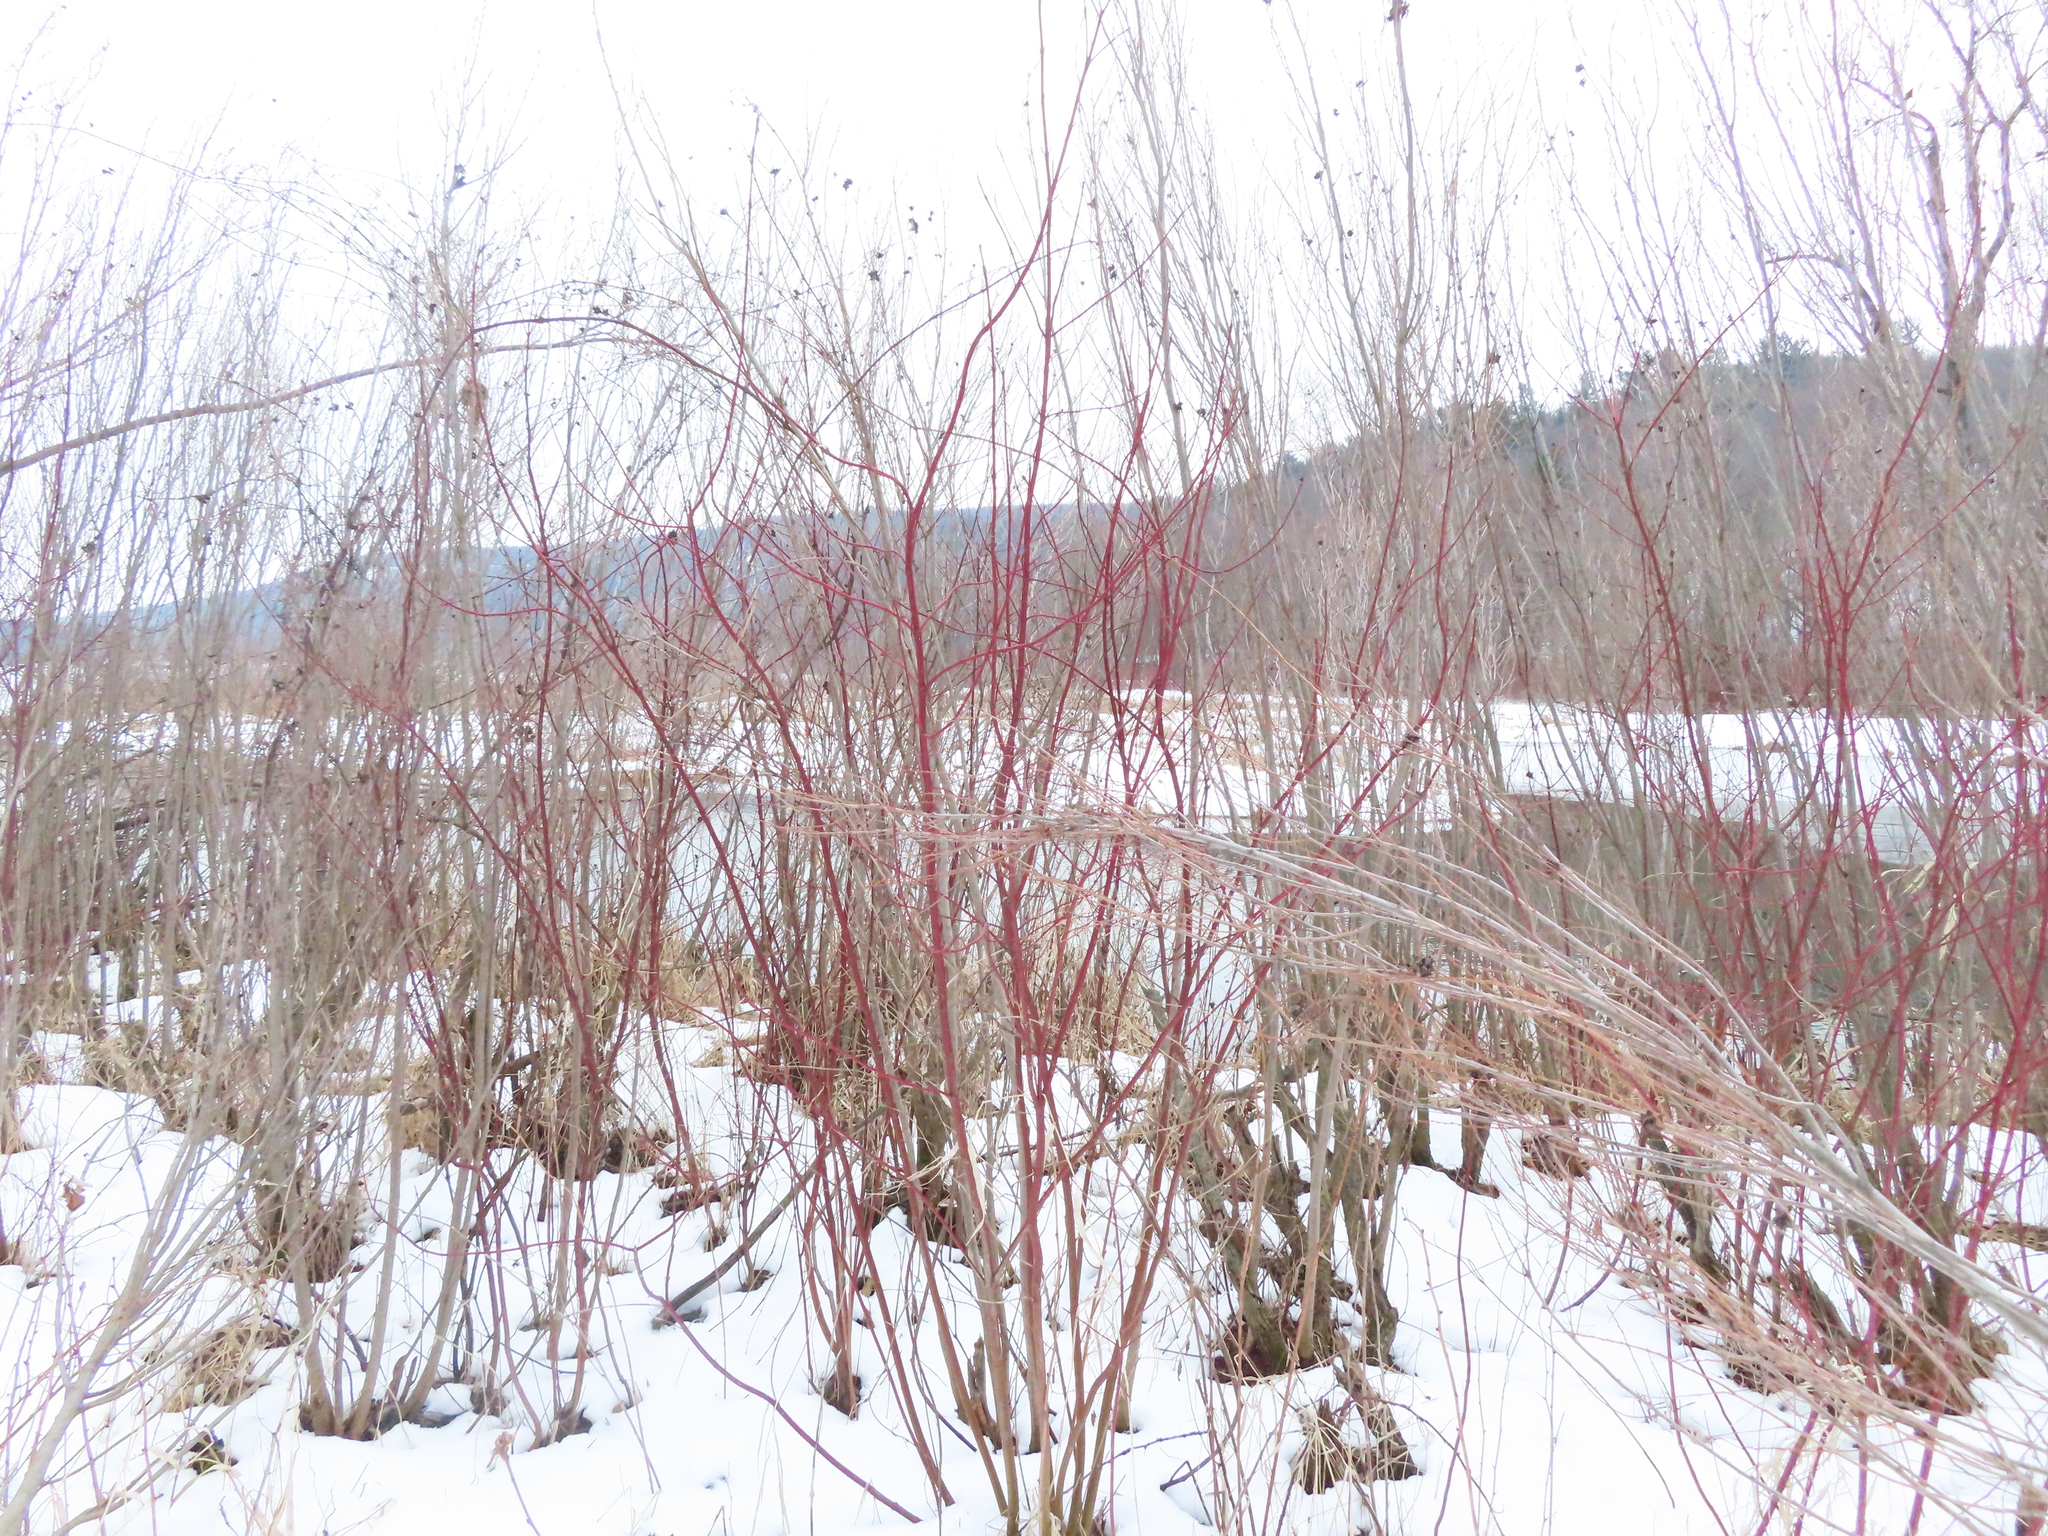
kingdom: Plantae
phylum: Tracheophyta
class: Magnoliopsida
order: Cornales
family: Cornaceae
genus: Cornus
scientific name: Cornus sericea
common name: Red-osier dogwood
